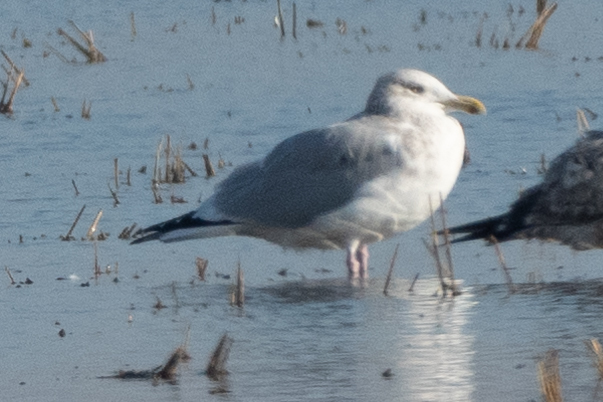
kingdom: Animalia
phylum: Chordata
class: Aves
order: Charadriiformes
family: Laridae
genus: Larus
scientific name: Larus argentatus
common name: Herring gull
